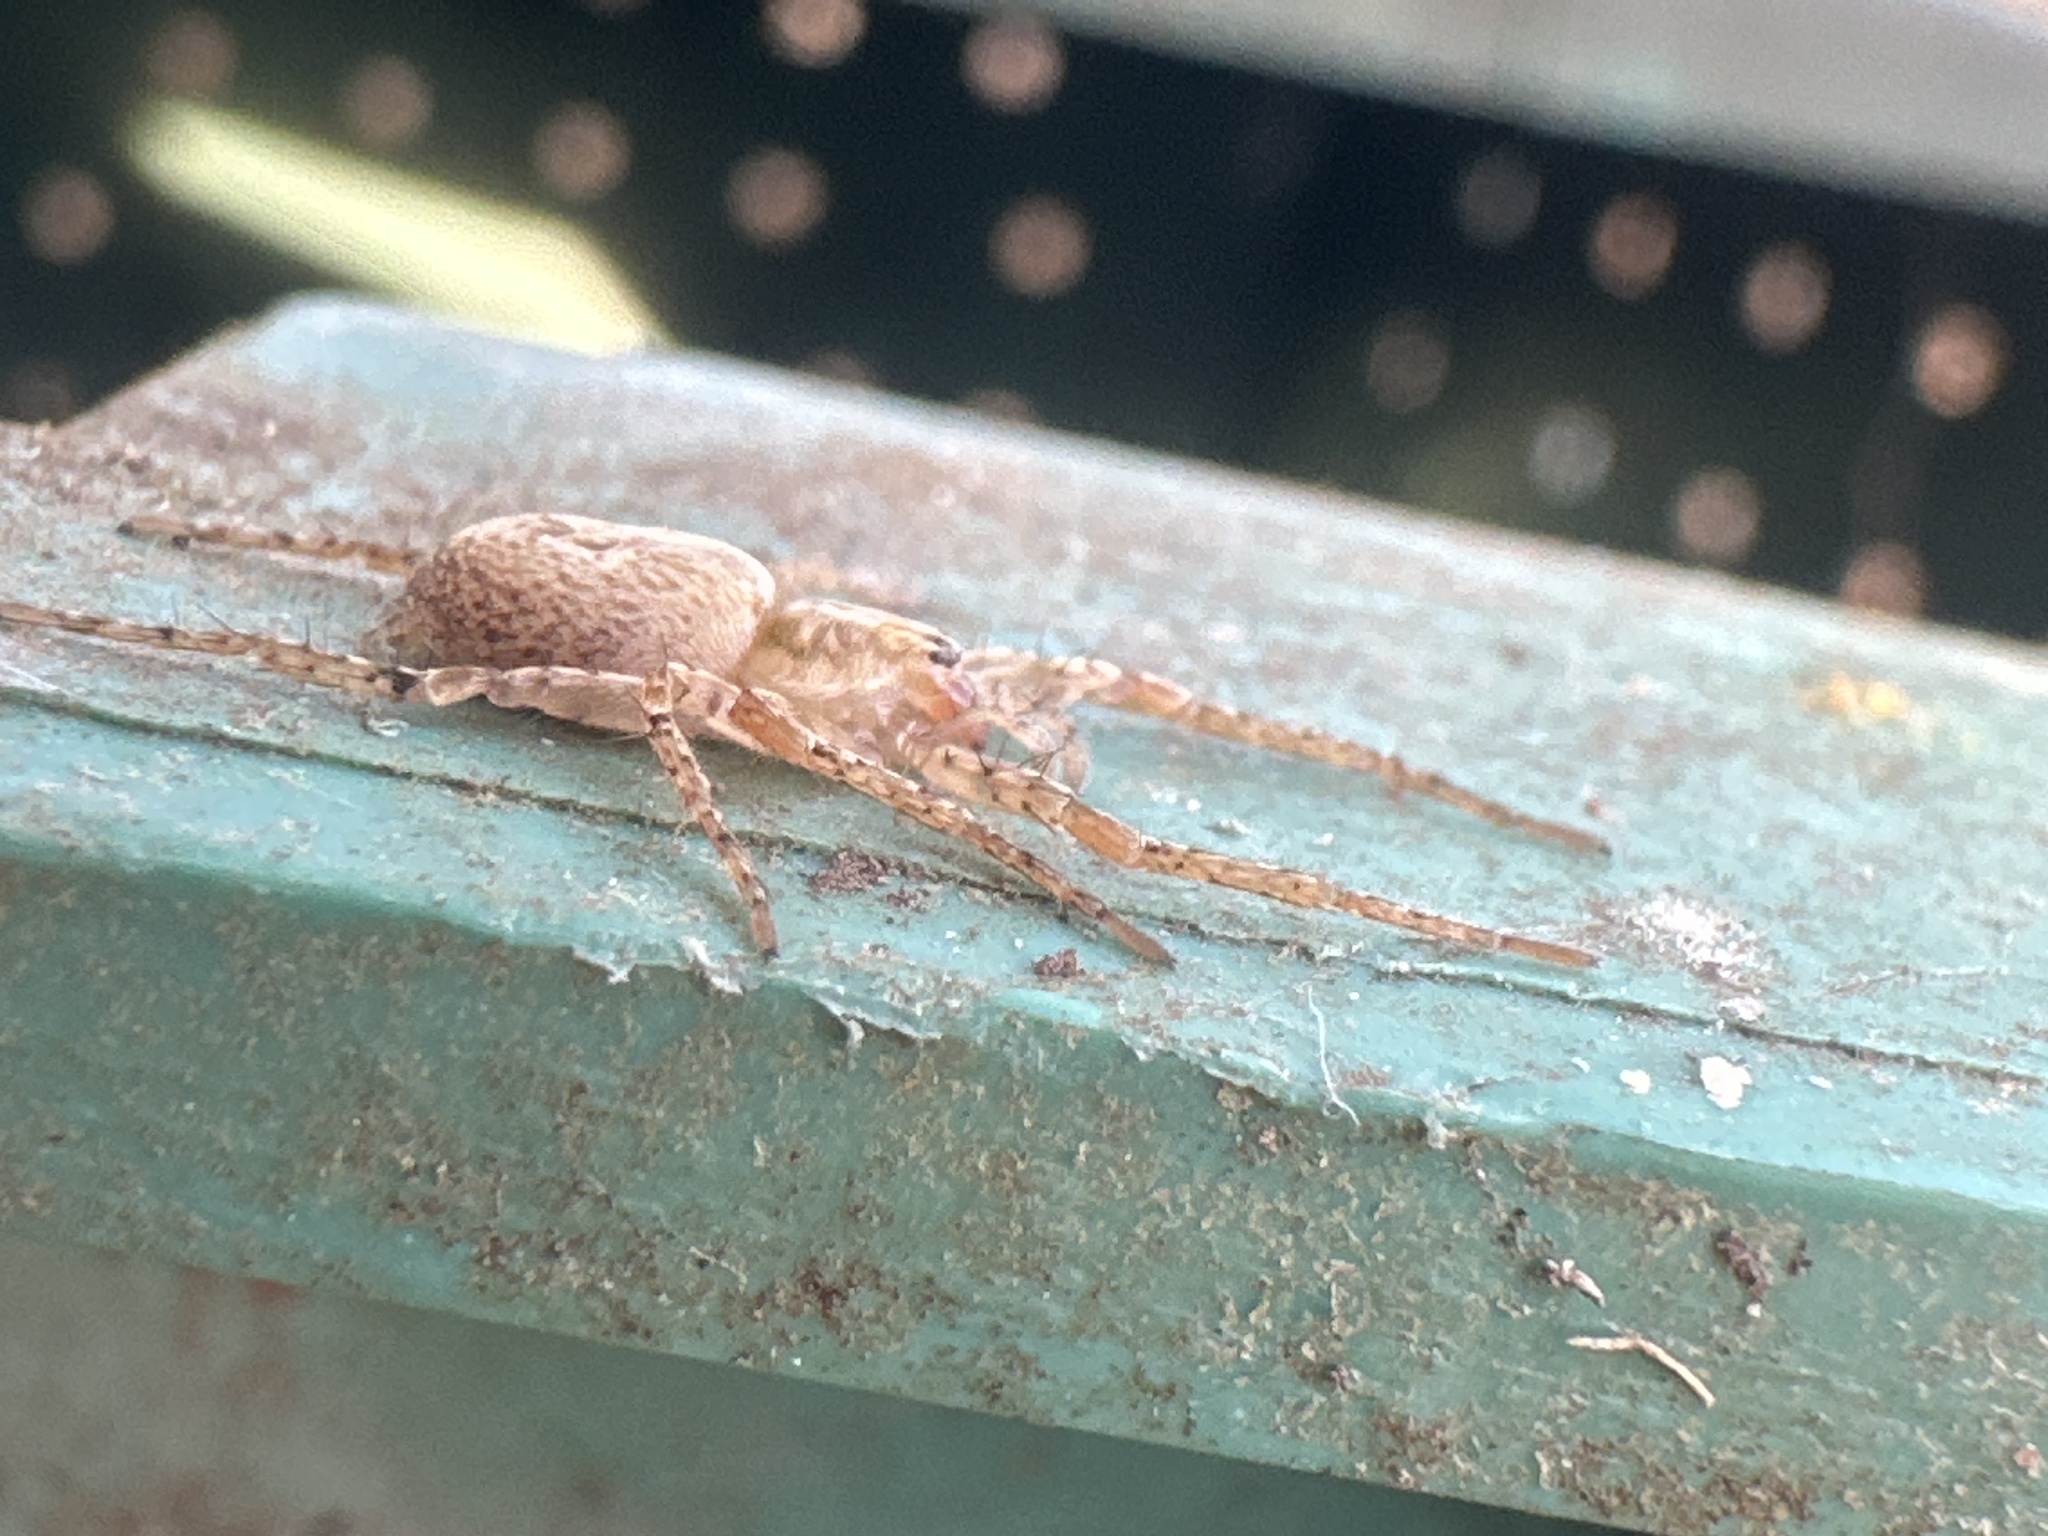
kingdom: Animalia
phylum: Arthropoda
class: Arachnida
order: Araneae
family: Anyphaenidae
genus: Anyphaena
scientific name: Anyphaena accentuata
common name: Buzzing spider
